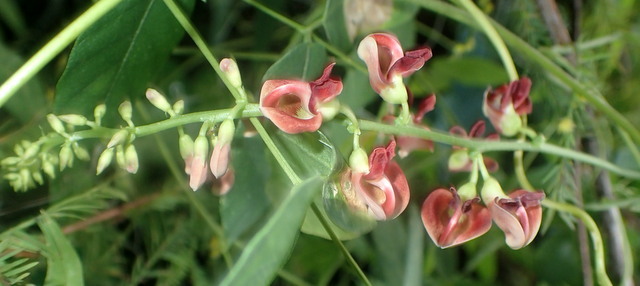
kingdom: Plantae
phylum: Tracheophyta
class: Magnoliopsida
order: Fabales
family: Fabaceae
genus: Apios
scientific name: Apios americana
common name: American potato-bean
